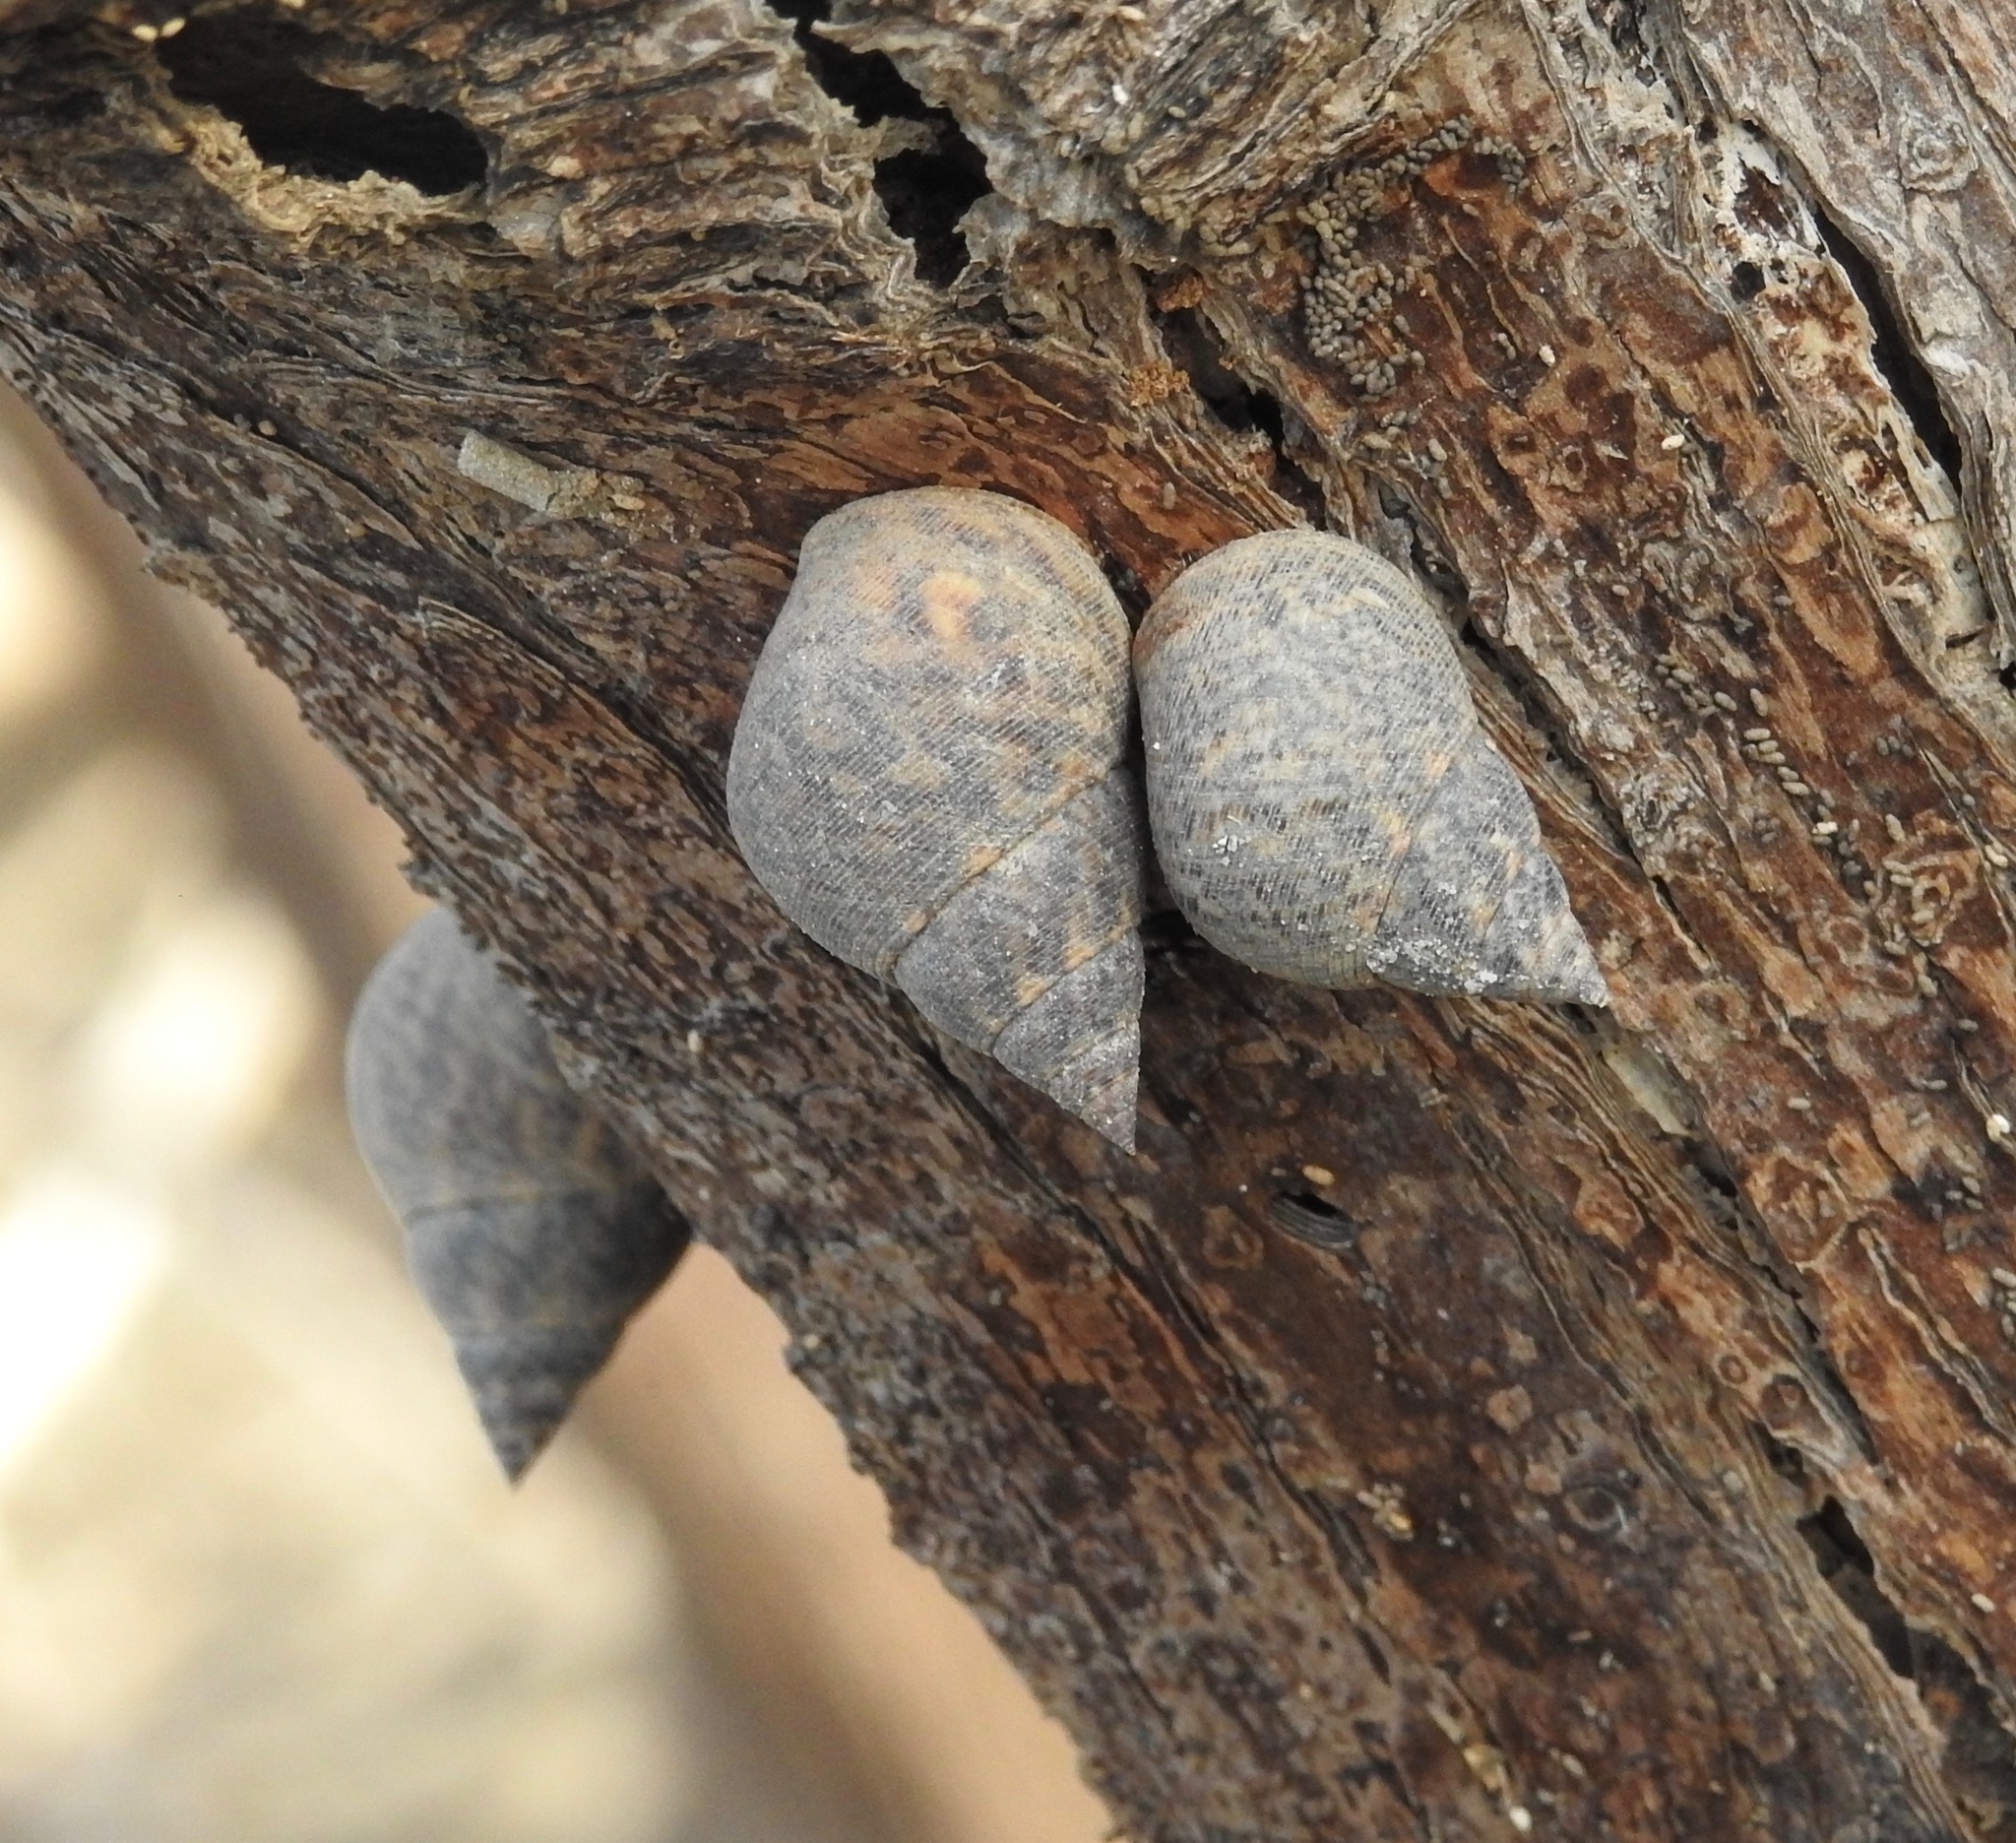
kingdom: Animalia
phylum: Mollusca
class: Gastropoda
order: Littorinimorpha
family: Littorinidae
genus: Littoraria
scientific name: Littoraria angulifera
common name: Mangrove periwinkle
